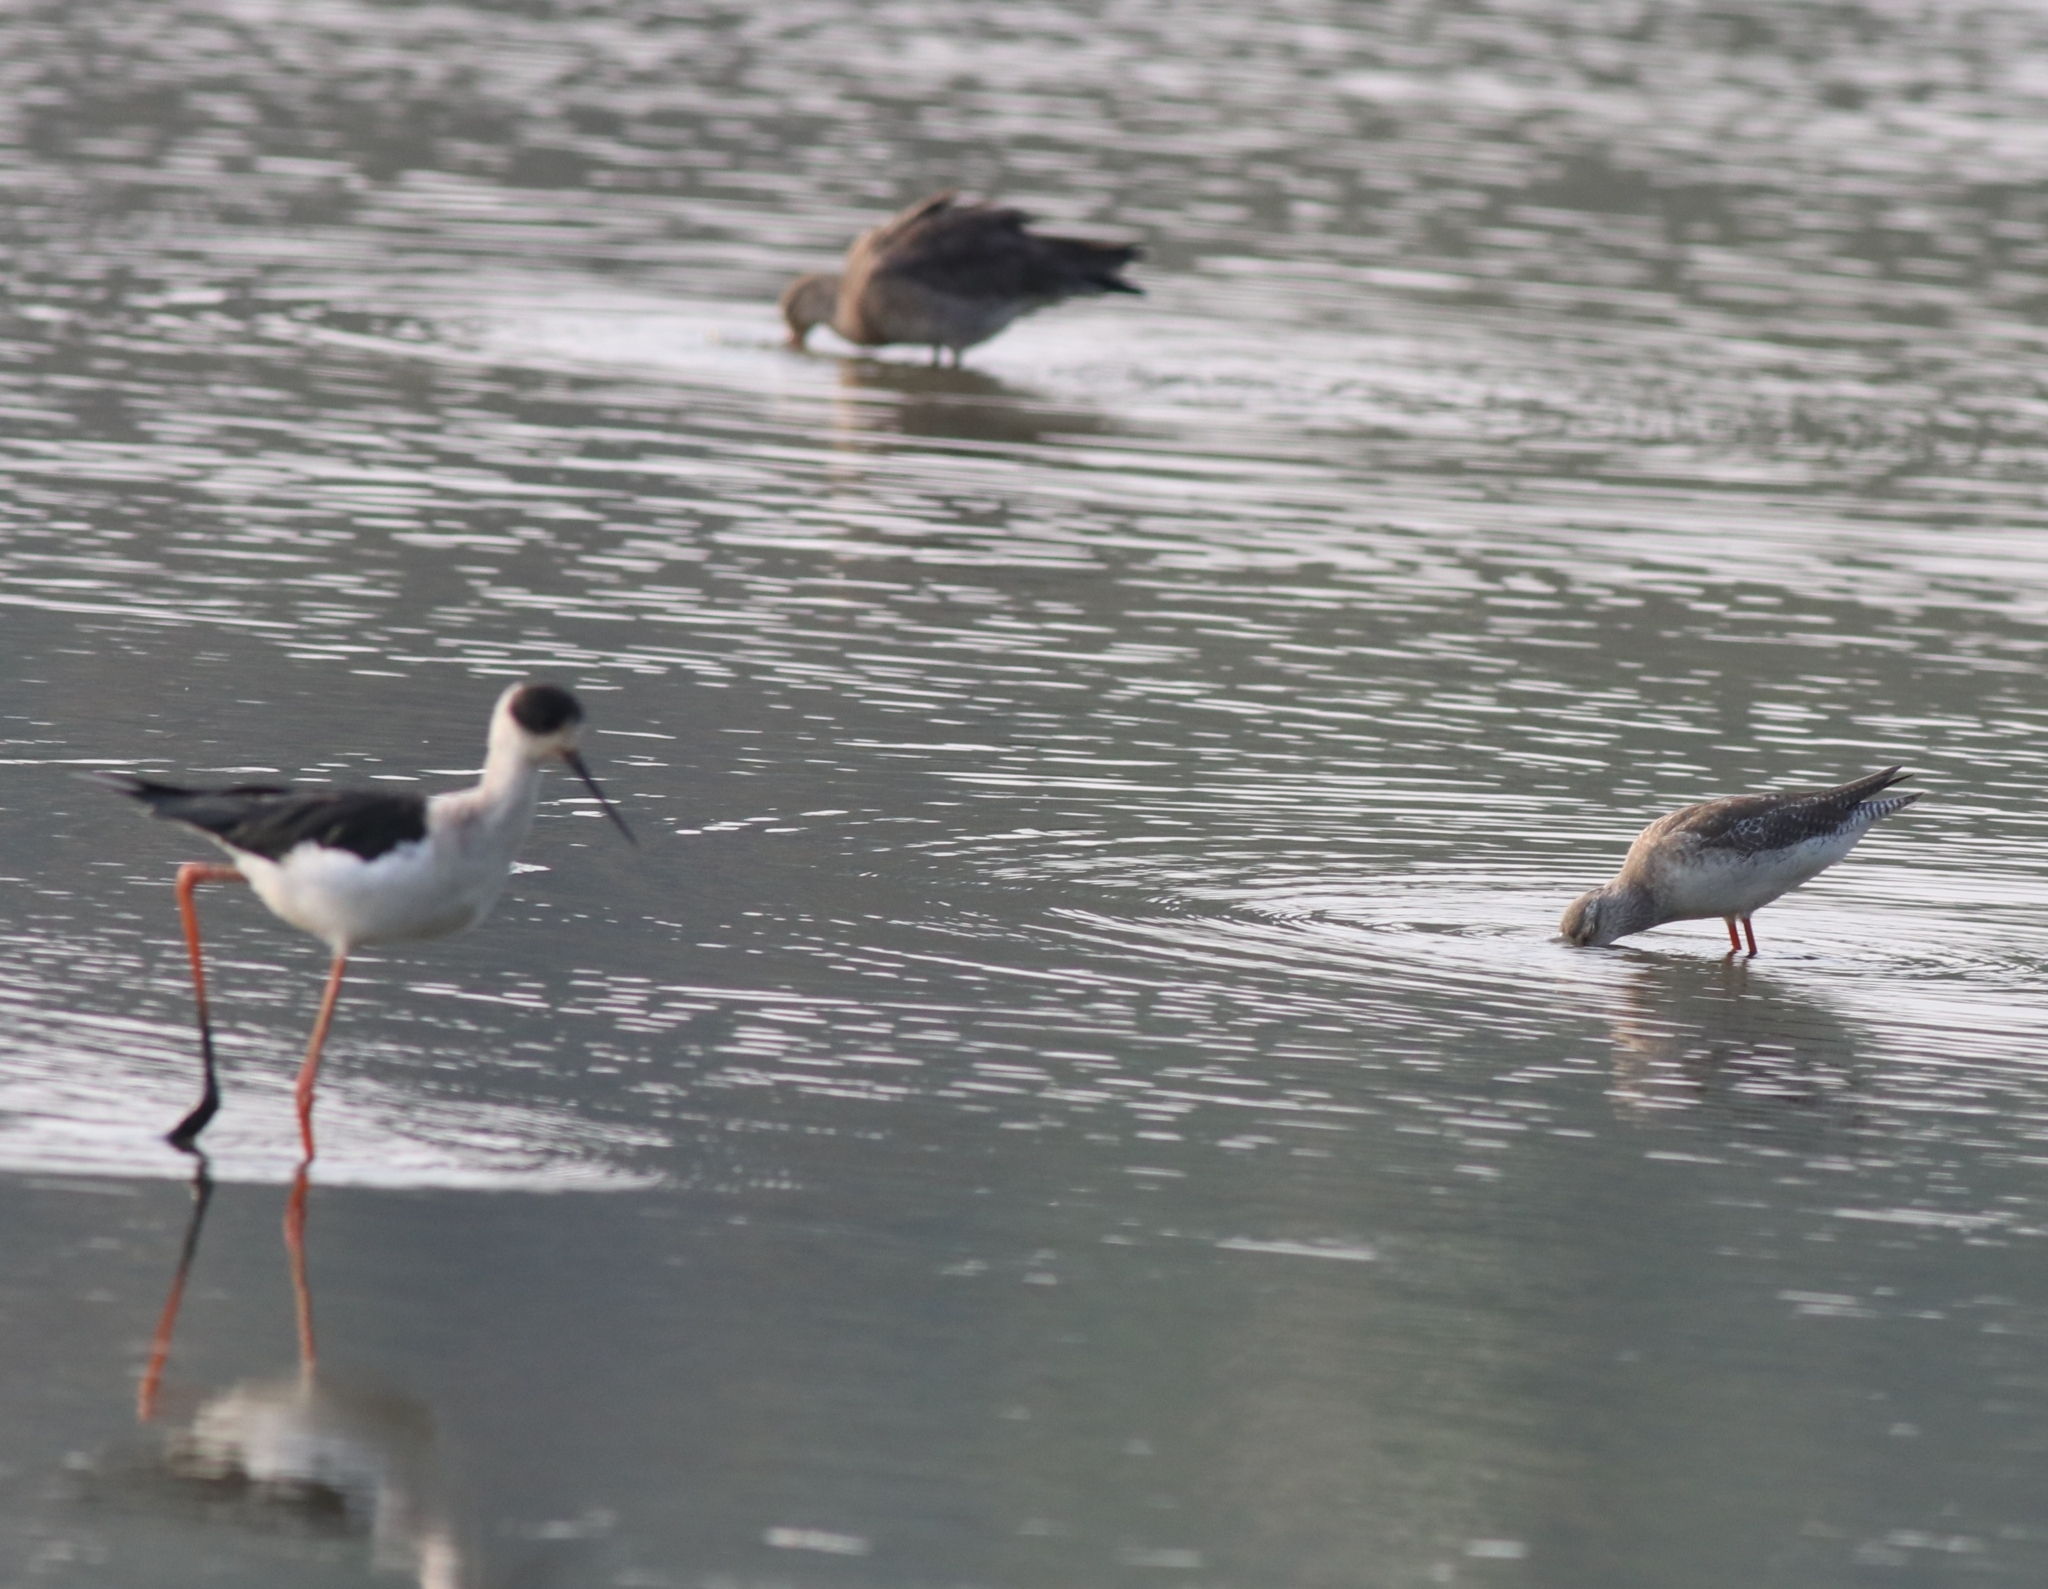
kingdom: Animalia
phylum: Chordata
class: Aves
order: Charadriiformes
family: Recurvirostridae
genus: Himantopus
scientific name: Himantopus himantopus
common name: Black-winged stilt
